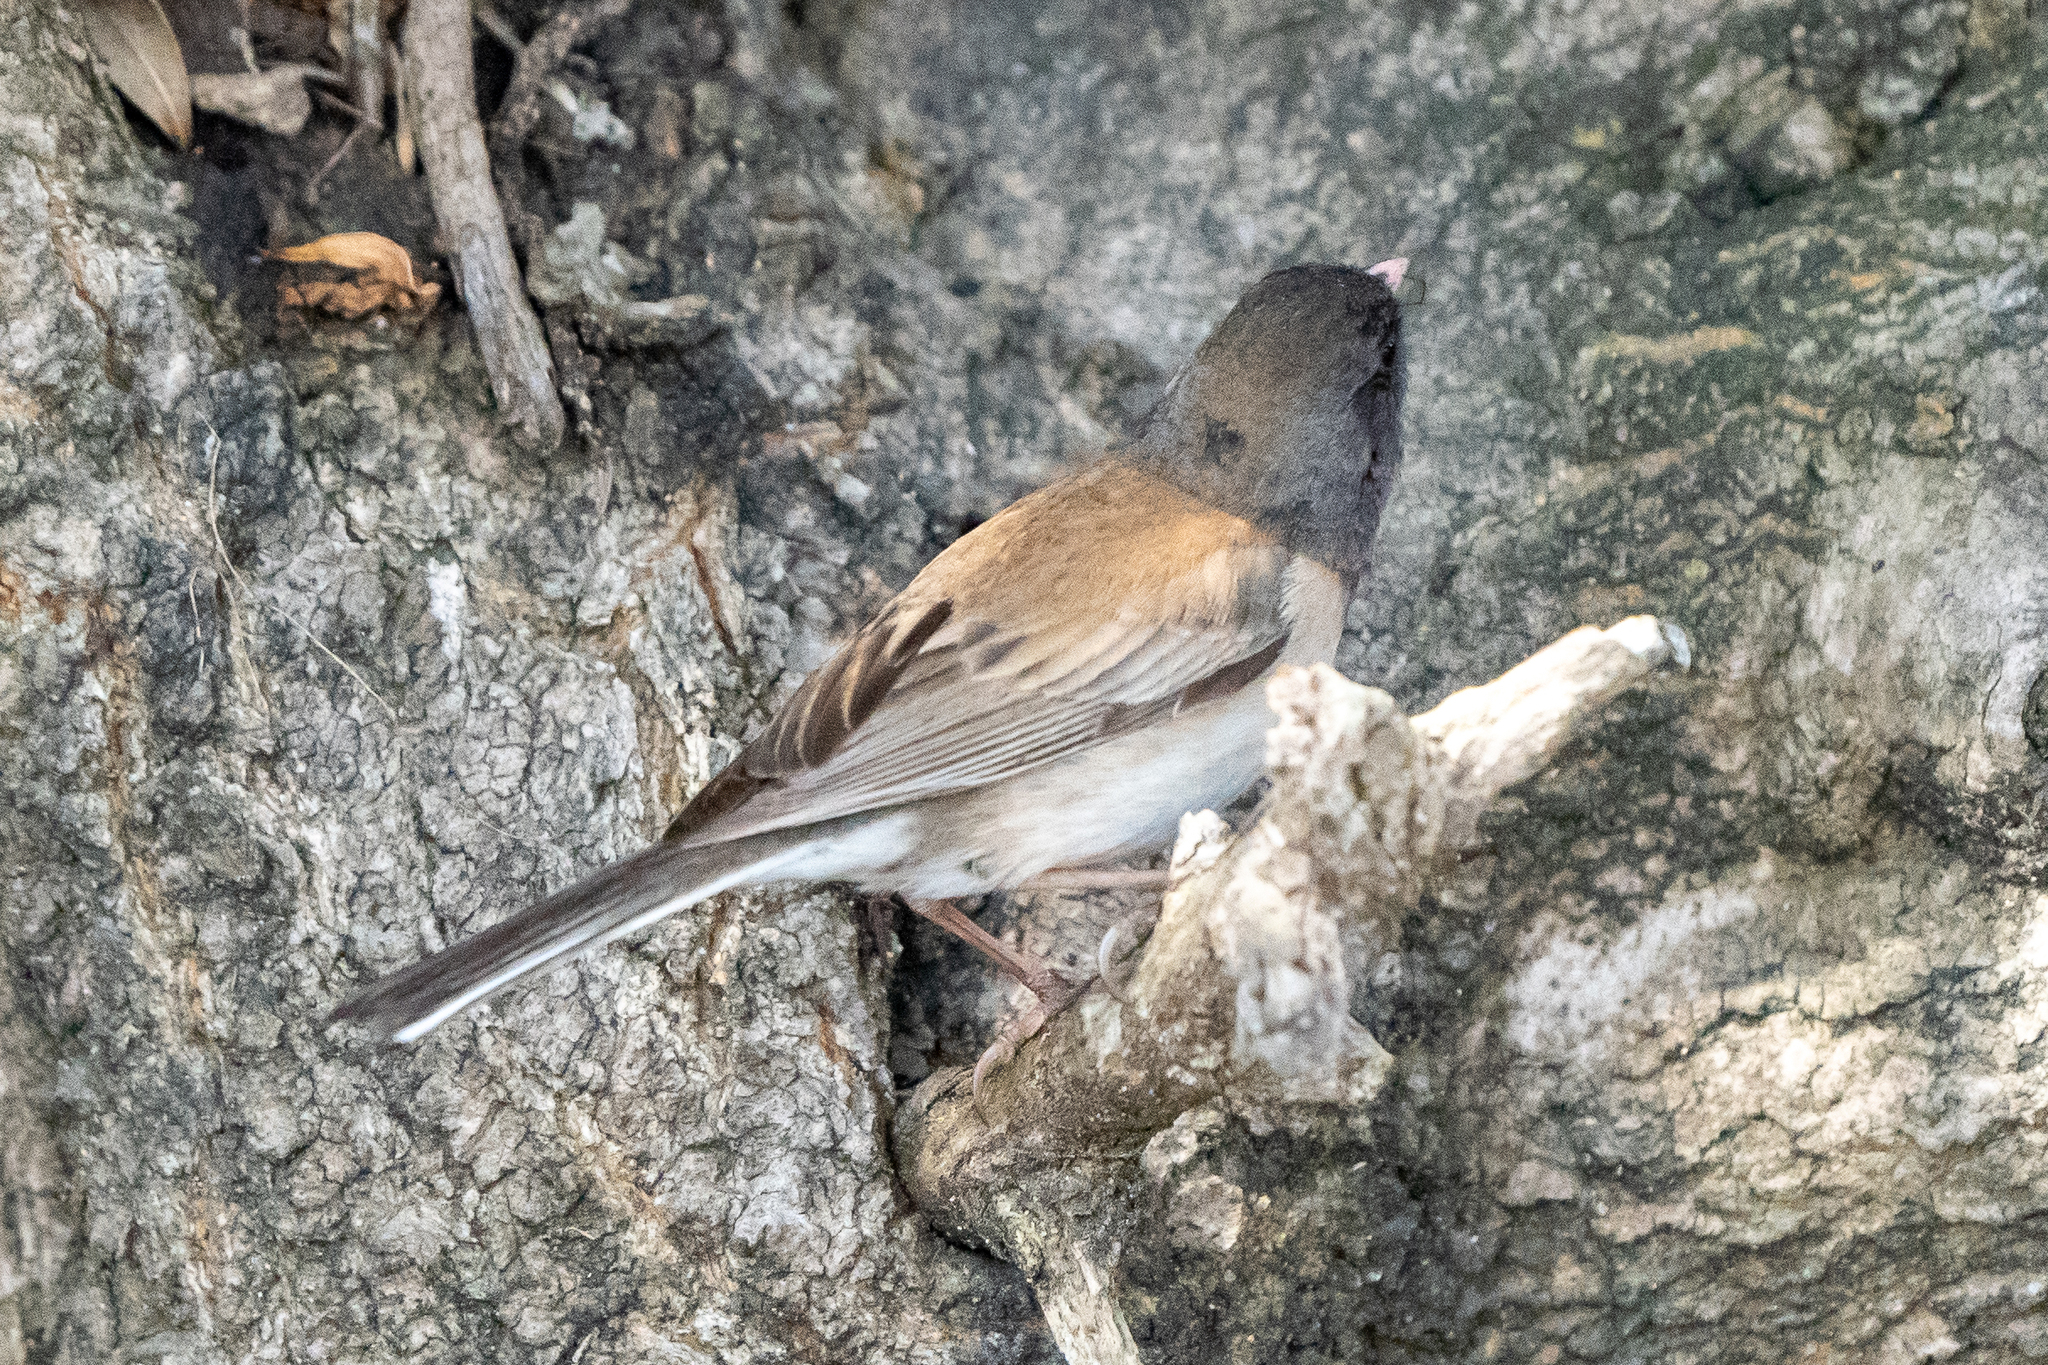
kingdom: Animalia
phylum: Chordata
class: Aves
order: Passeriformes
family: Passerellidae
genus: Junco
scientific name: Junco hyemalis
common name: Dark-eyed junco
